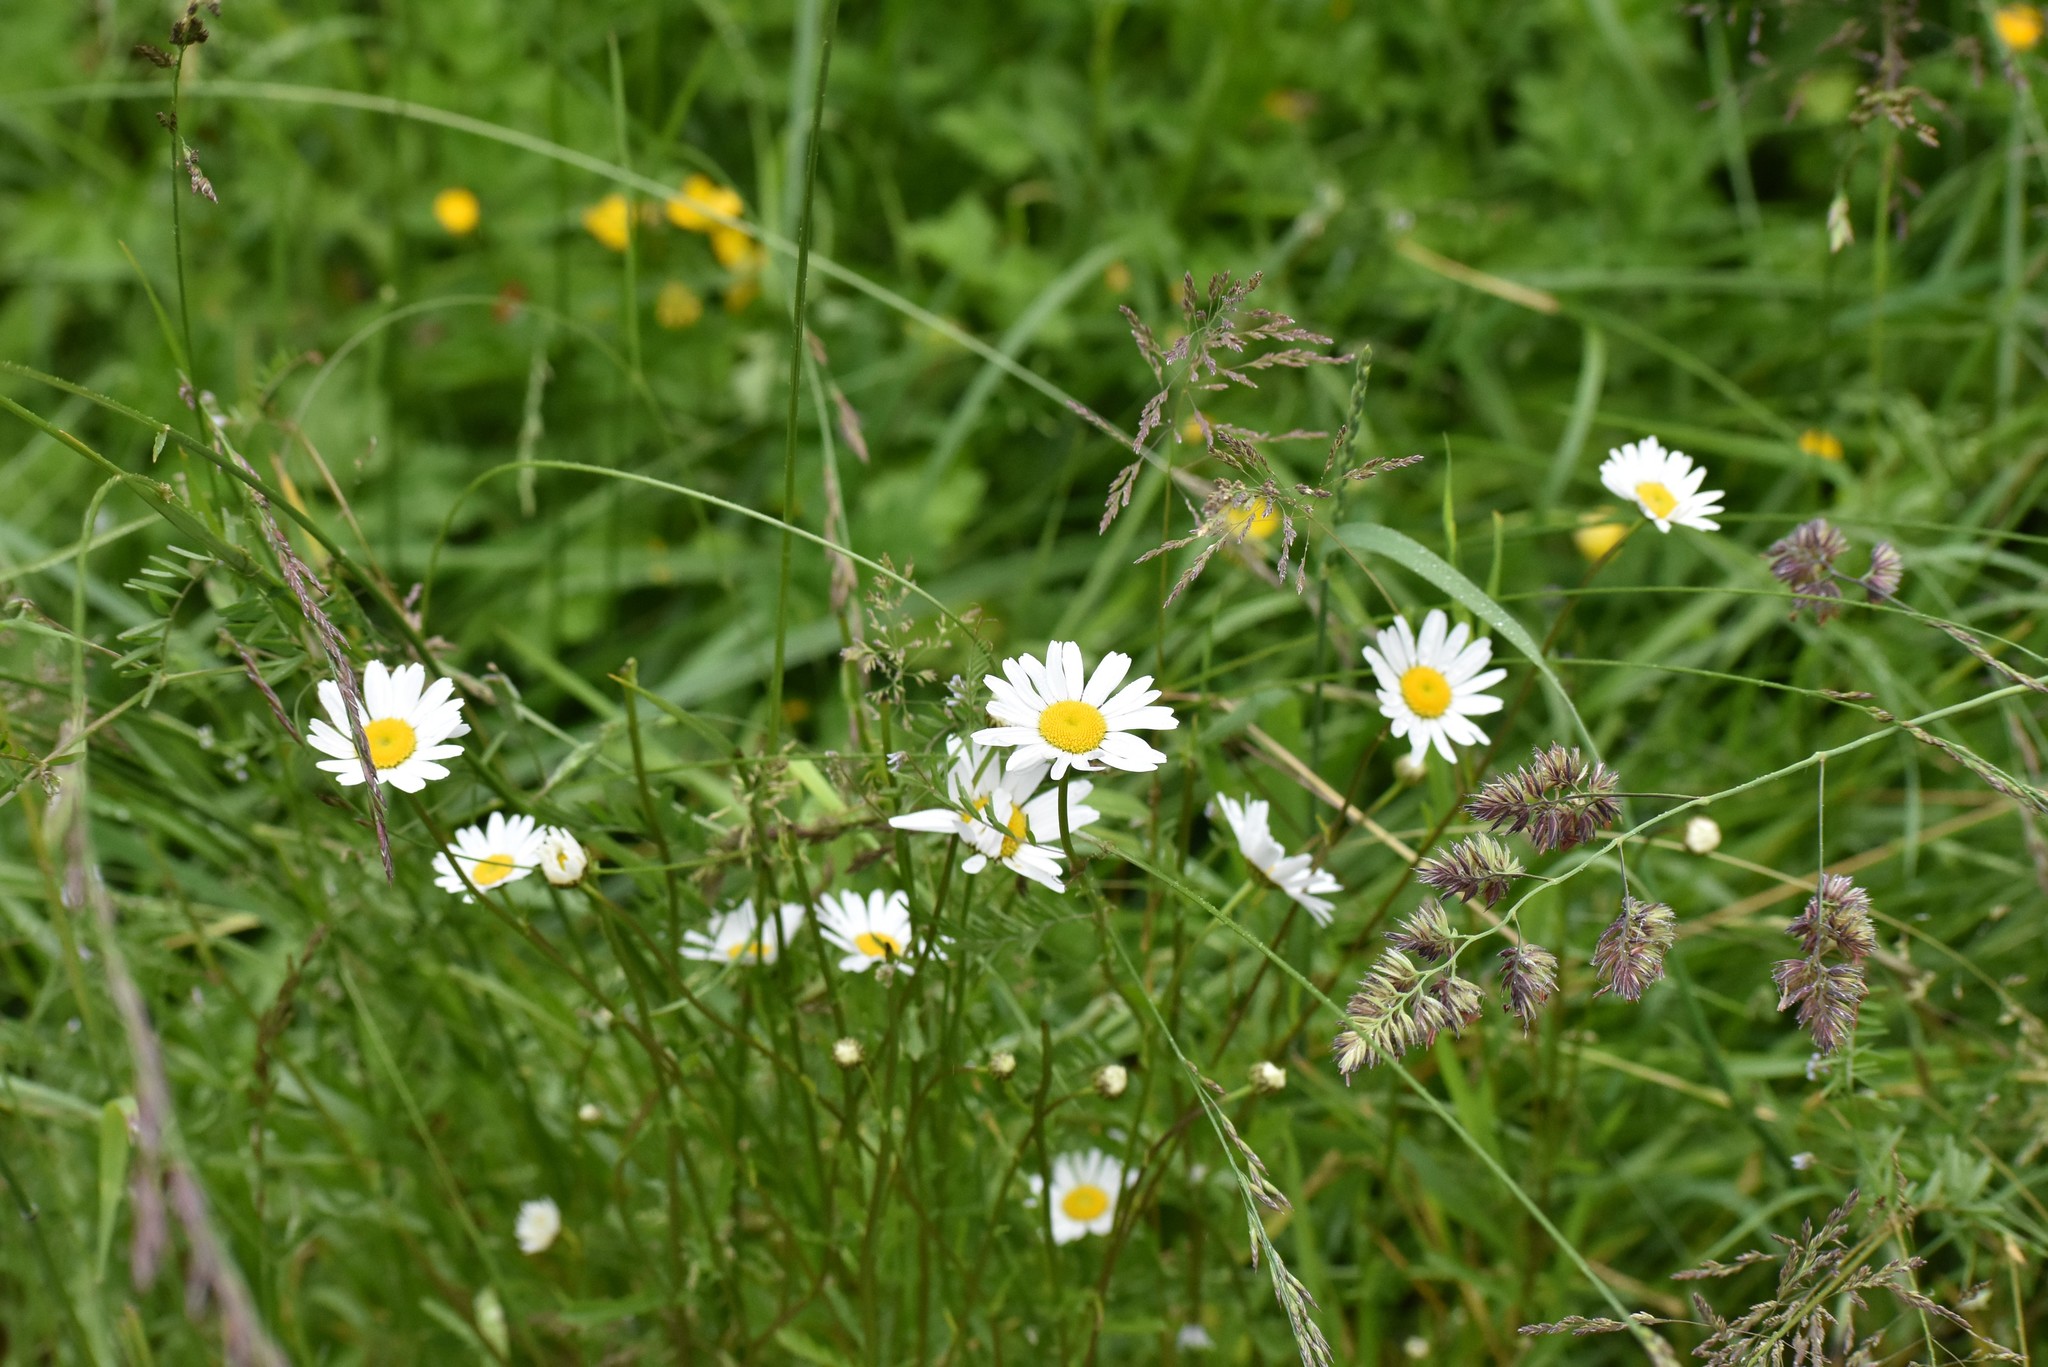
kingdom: Plantae
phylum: Tracheophyta
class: Magnoliopsida
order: Asterales
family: Asteraceae
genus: Leucanthemum
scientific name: Leucanthemum vulgare
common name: Oxeye daisy
